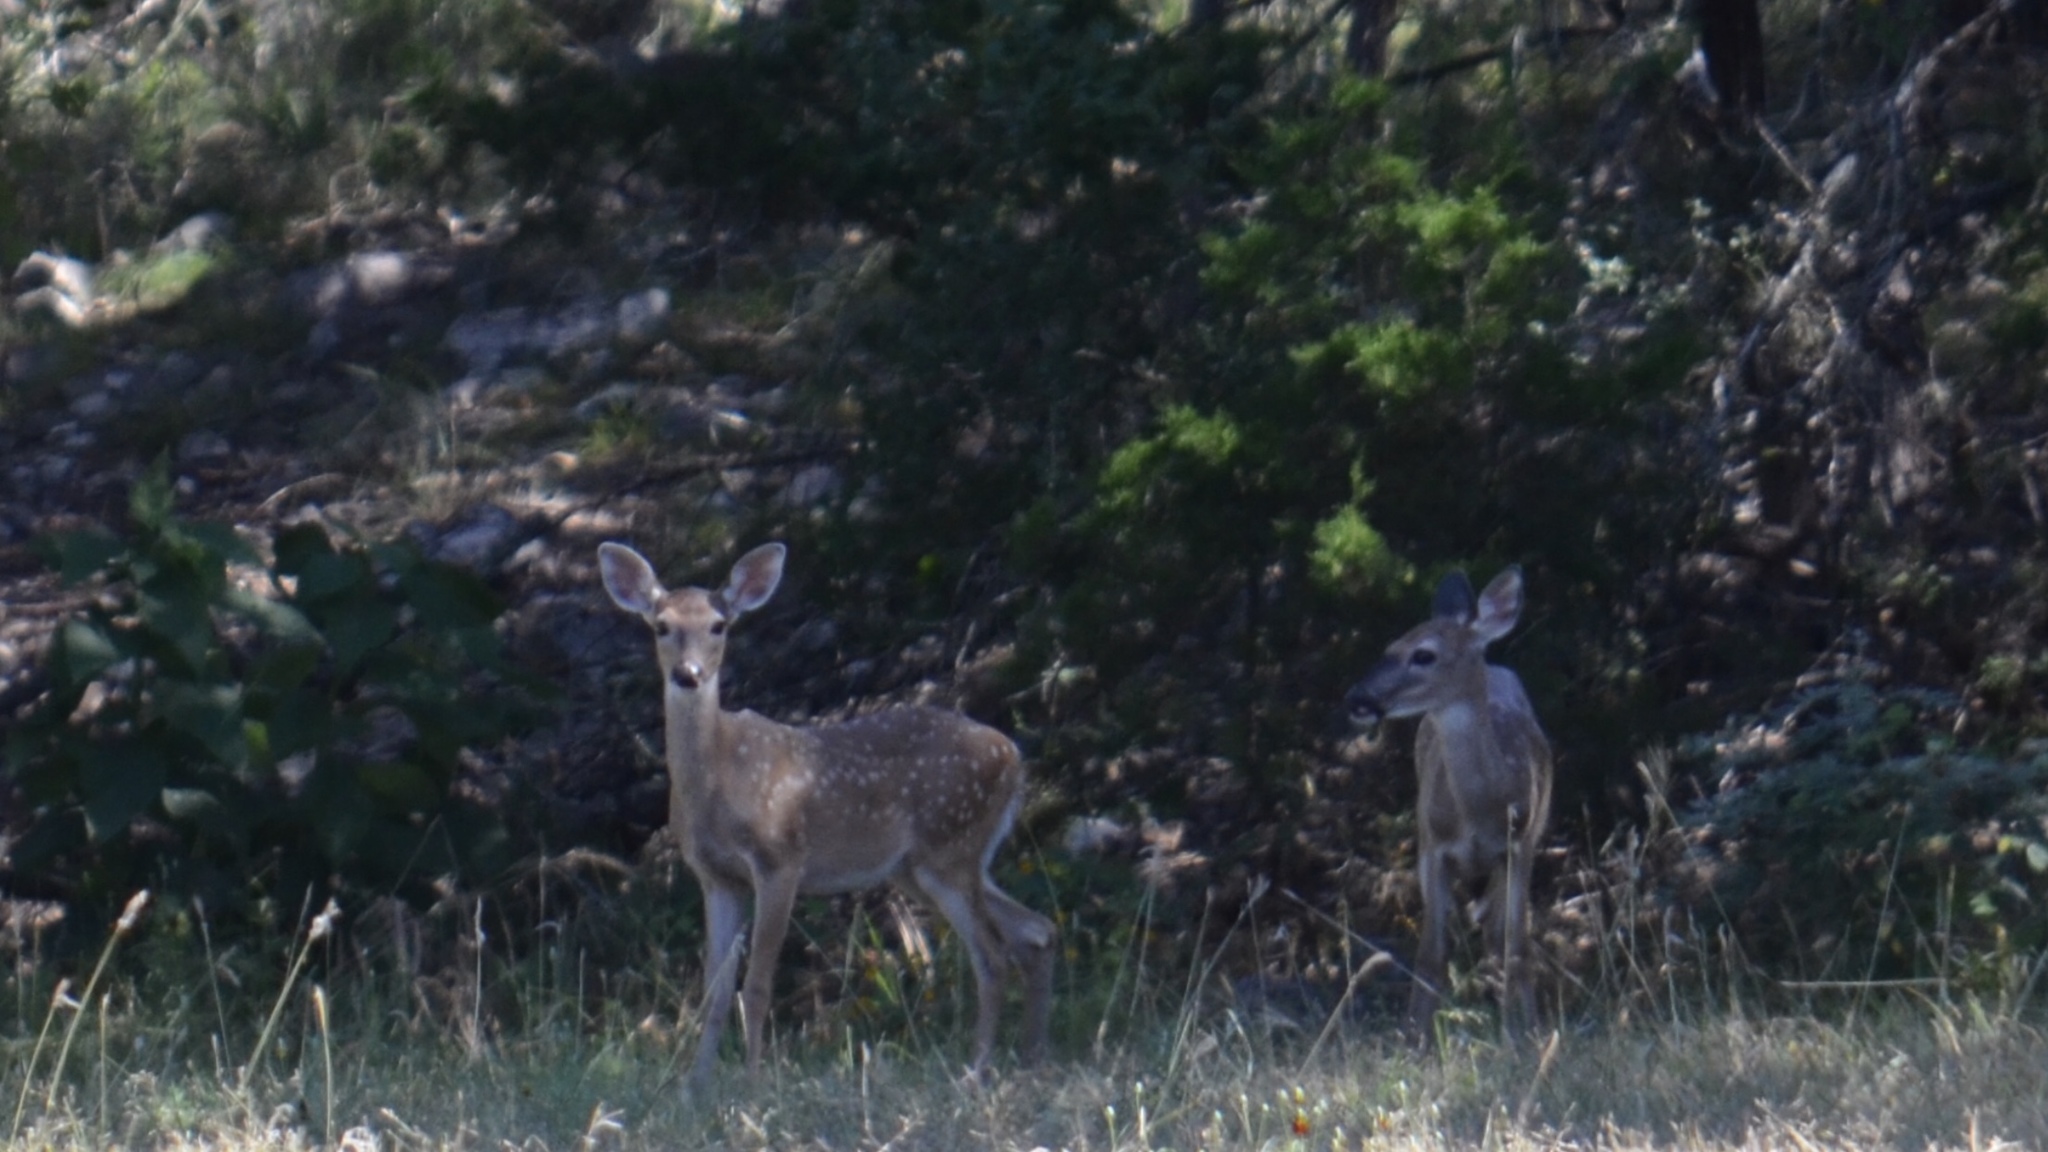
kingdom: Animalia
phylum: Chordata
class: Mammalia
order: Artiodactyla
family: Cervidae
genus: Odocoileus
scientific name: Odocoileus virginianus
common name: White-tailed deer
